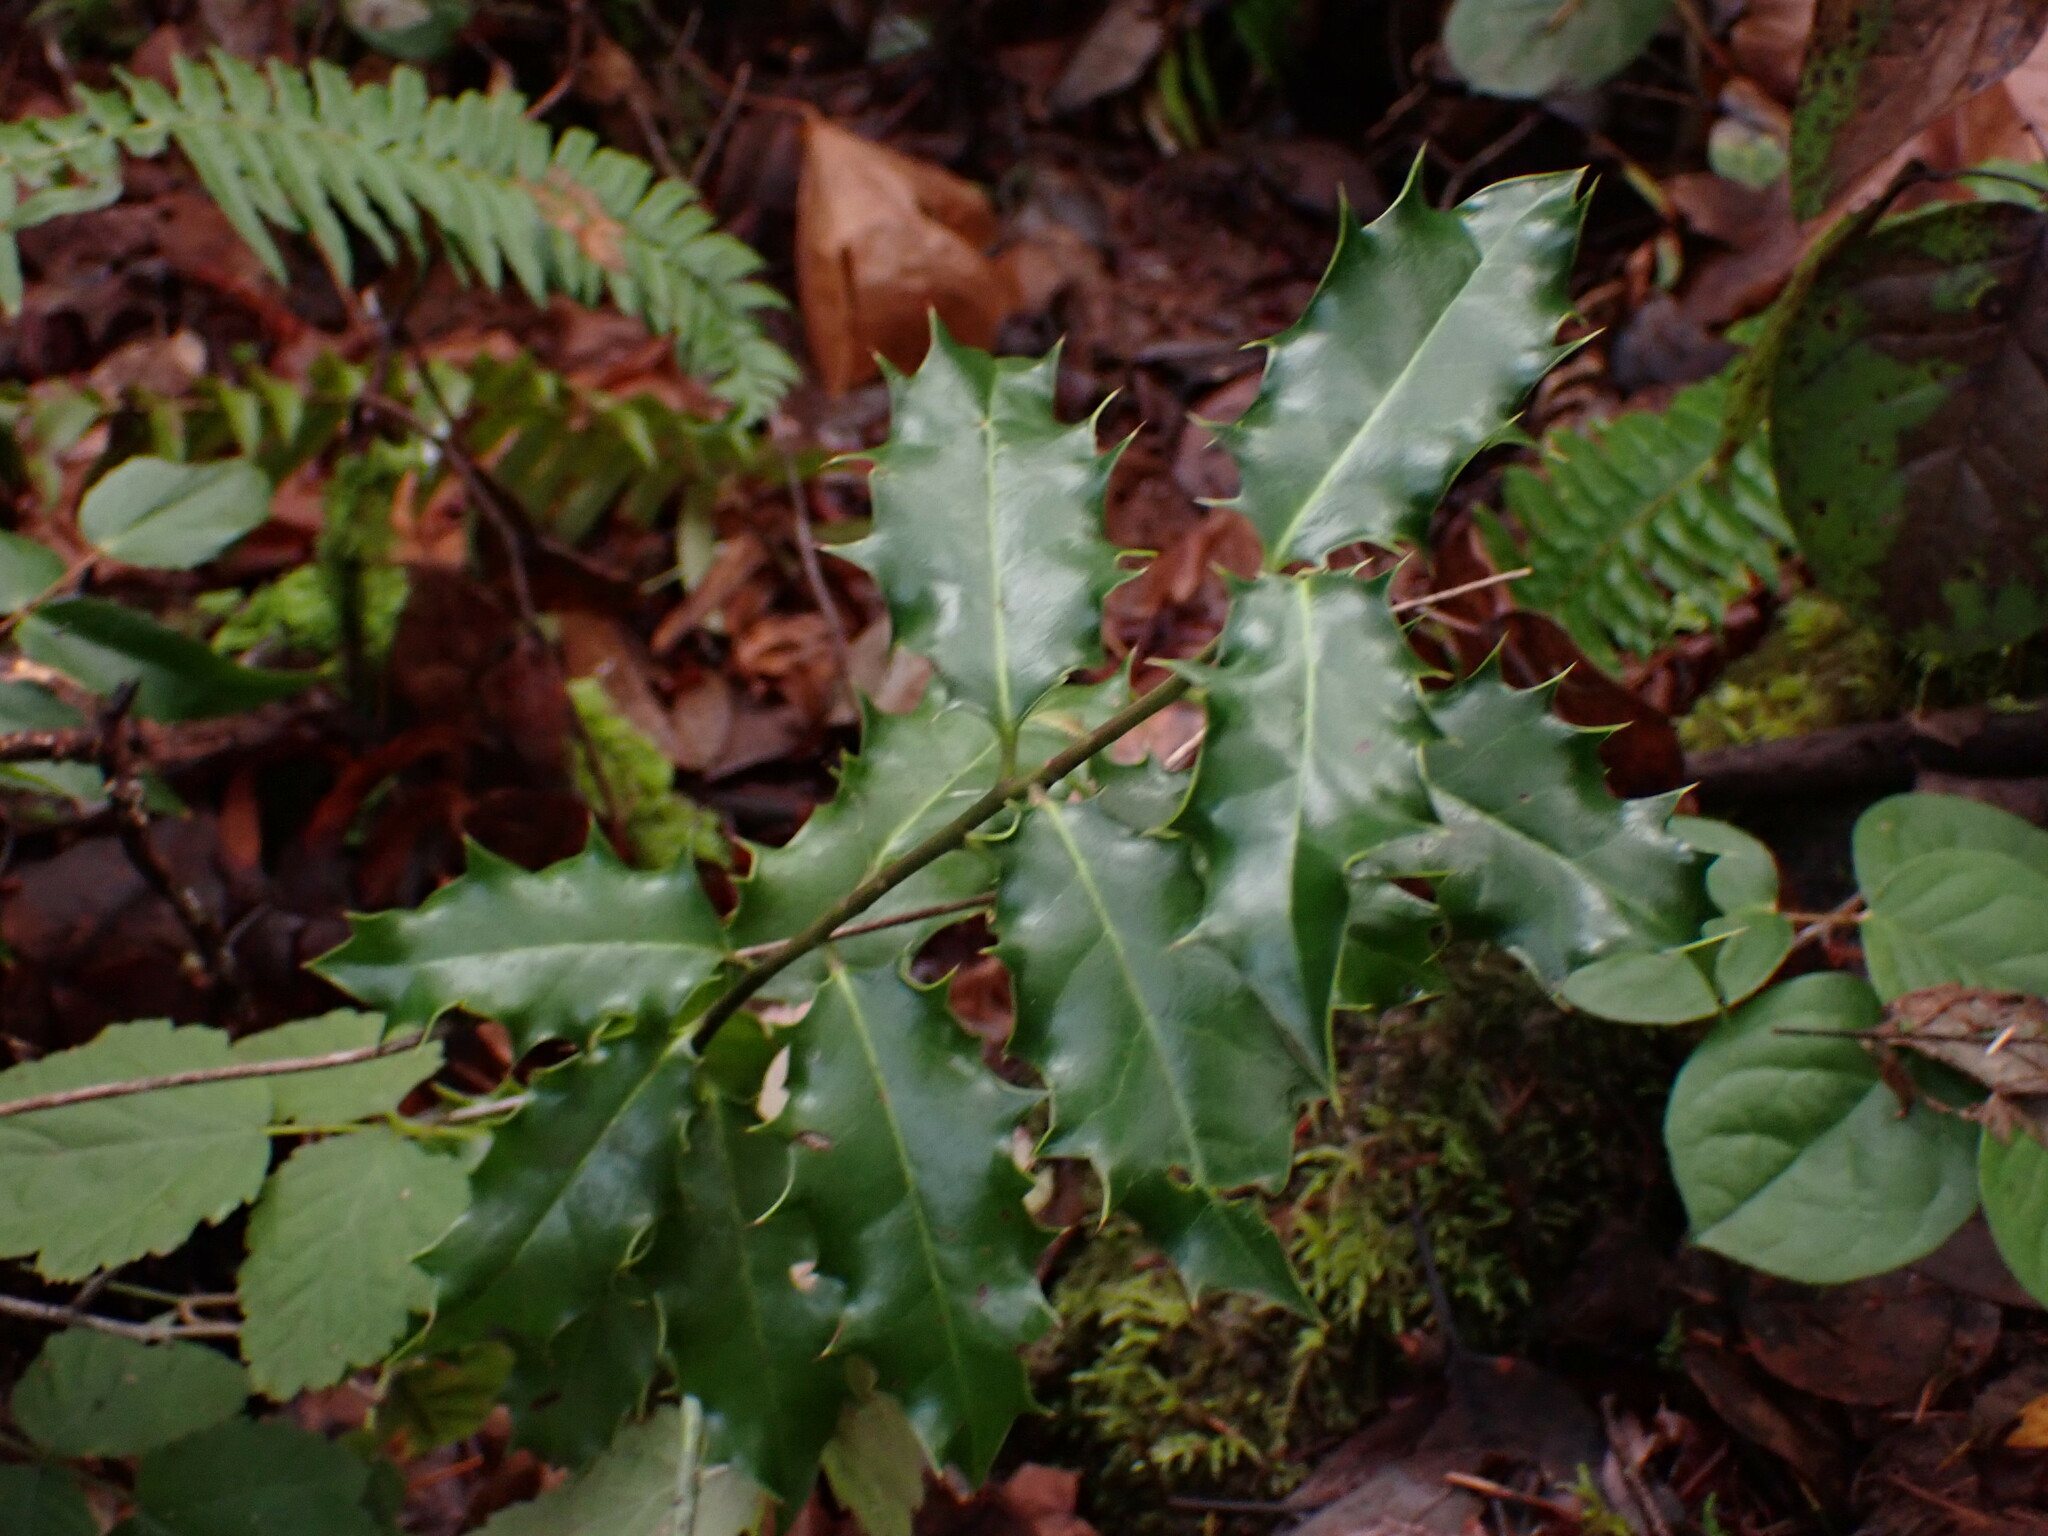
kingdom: Plantae
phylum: Tracheophyta
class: Magnoliopsida
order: Aquifoliales
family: Aquifoliaceae
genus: Ilex
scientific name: Ilex aquifolium
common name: English holly
